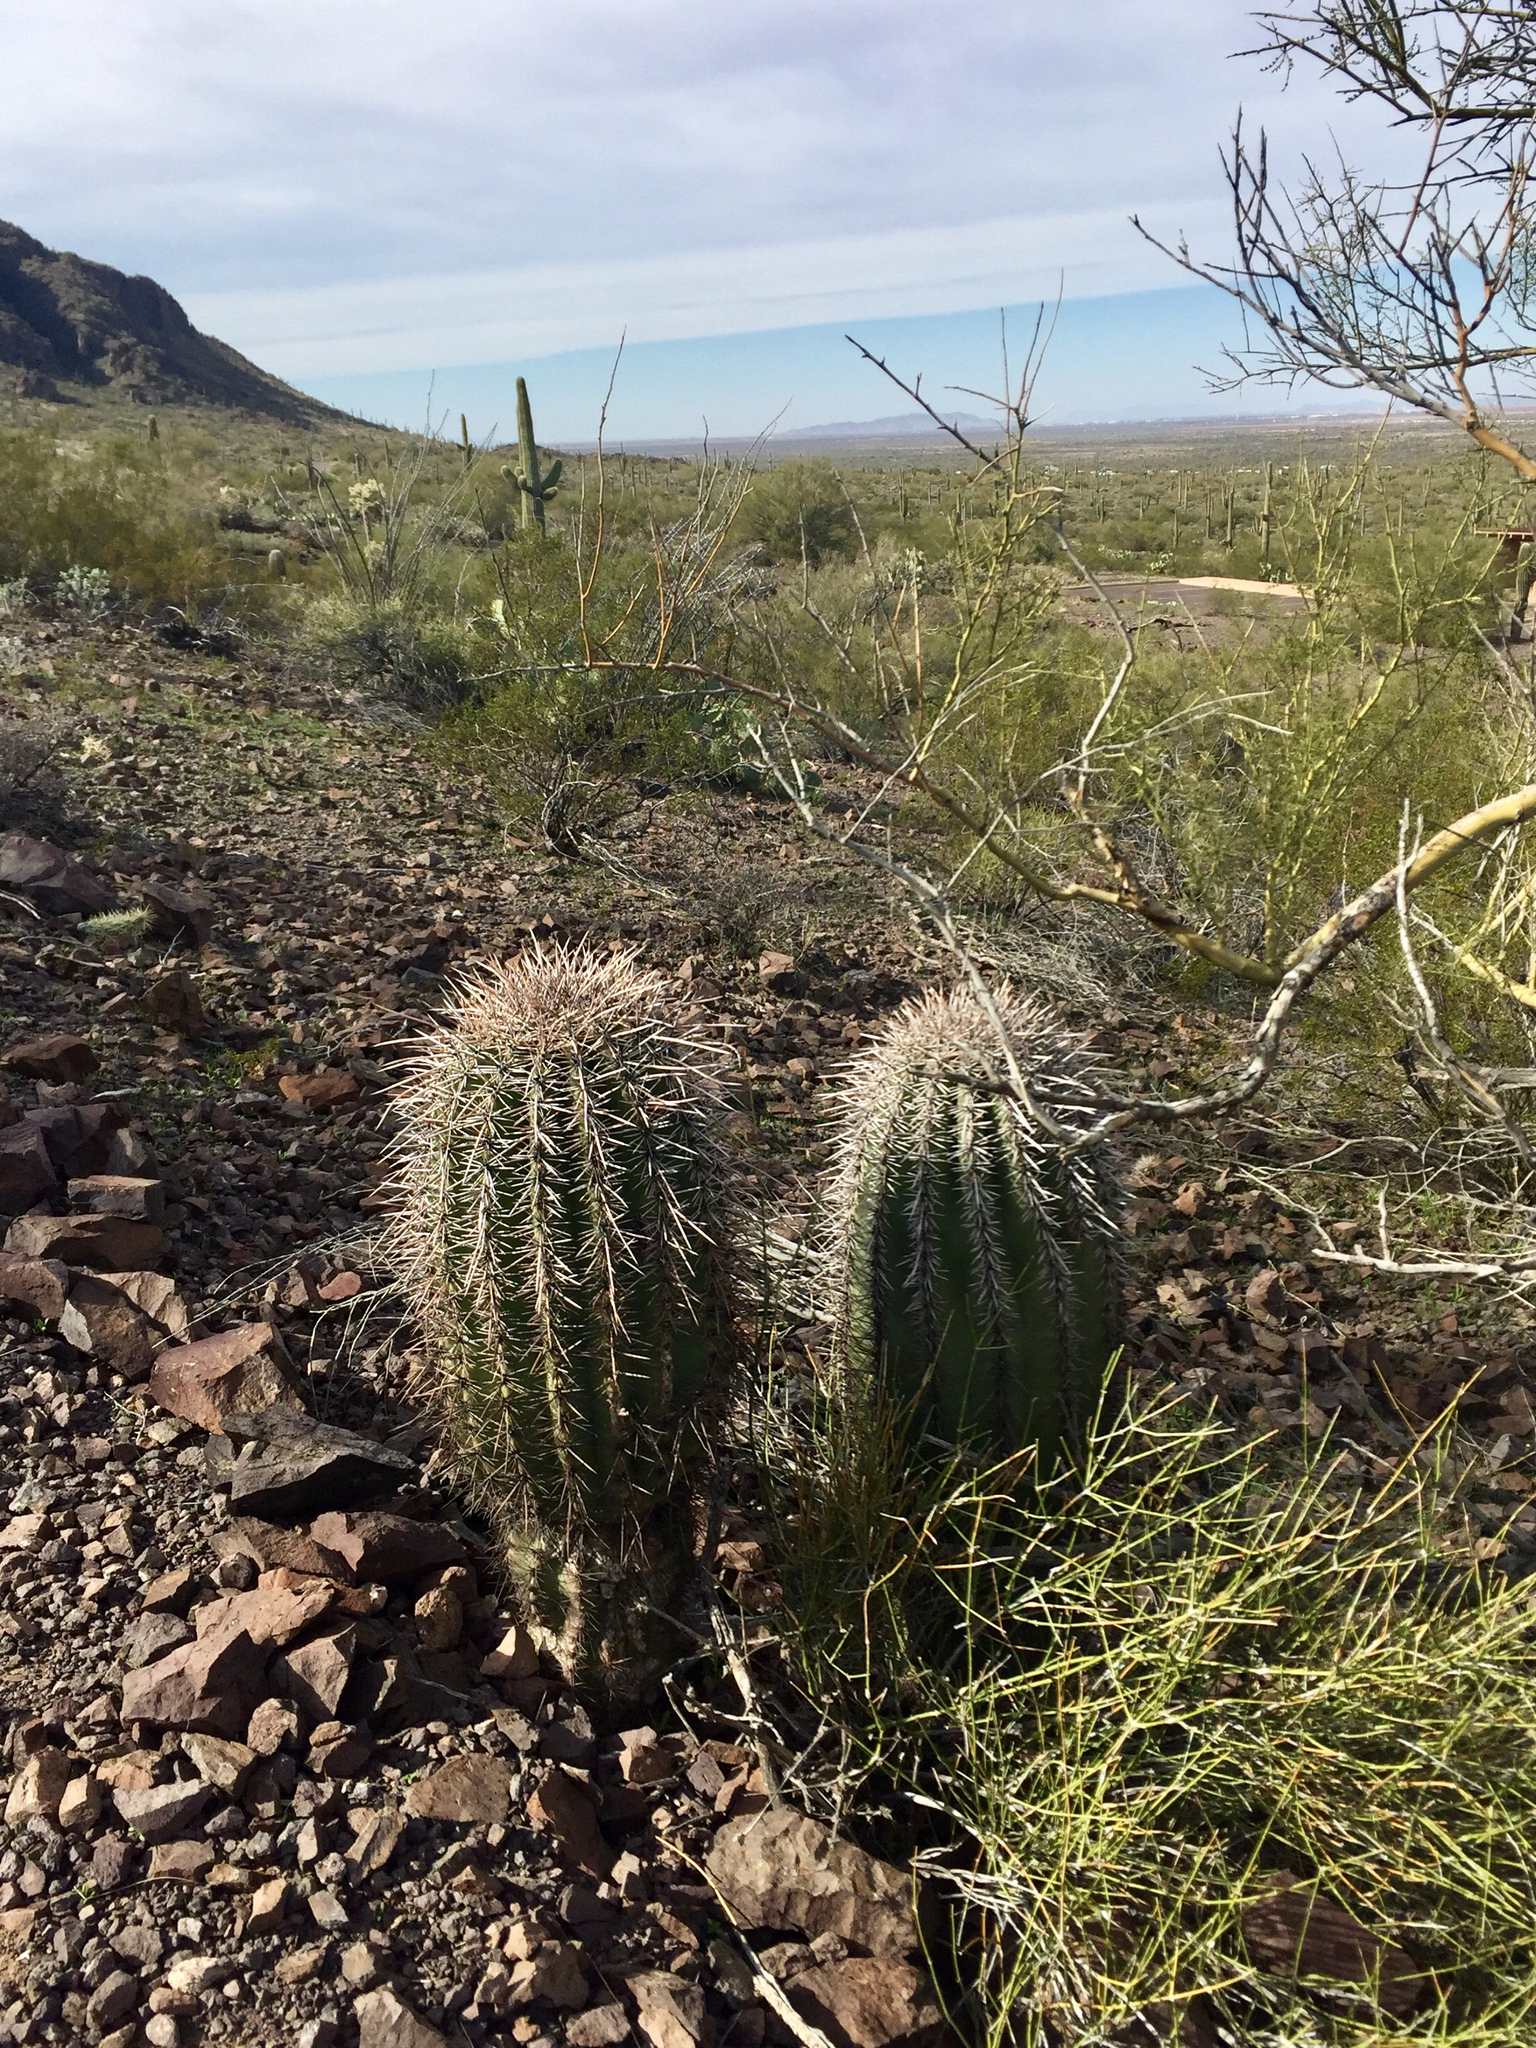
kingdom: Plantae
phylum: Tracheophyta
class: Magnoliopsida
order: Caryophyllales
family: Cactaceae
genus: Carnegiea
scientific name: Carnegiea gigantea
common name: Saguaro
